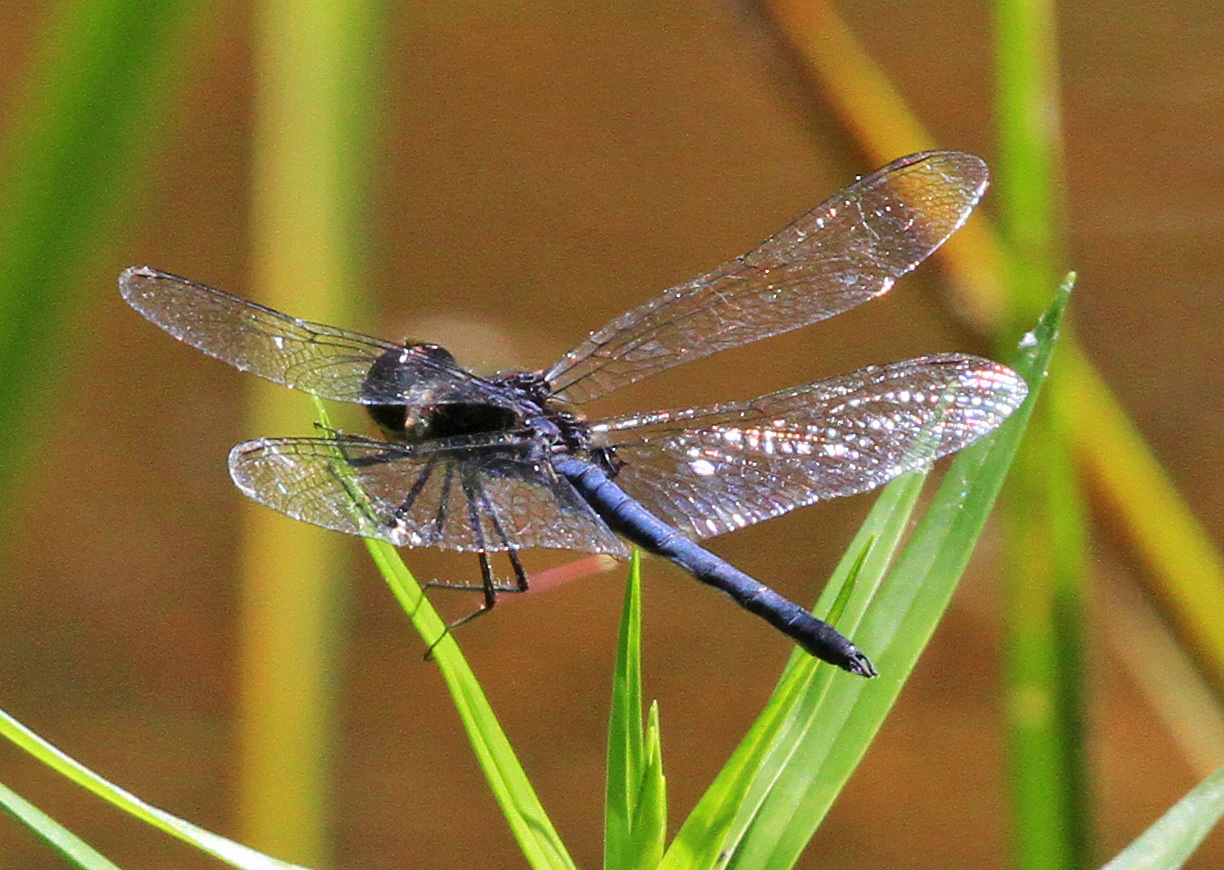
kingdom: Animalia
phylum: Arthropoda
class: Insecta
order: Odonata
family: Libellulidae
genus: Celithemis
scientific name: Celithemis verna
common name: Double-ringed pennant
